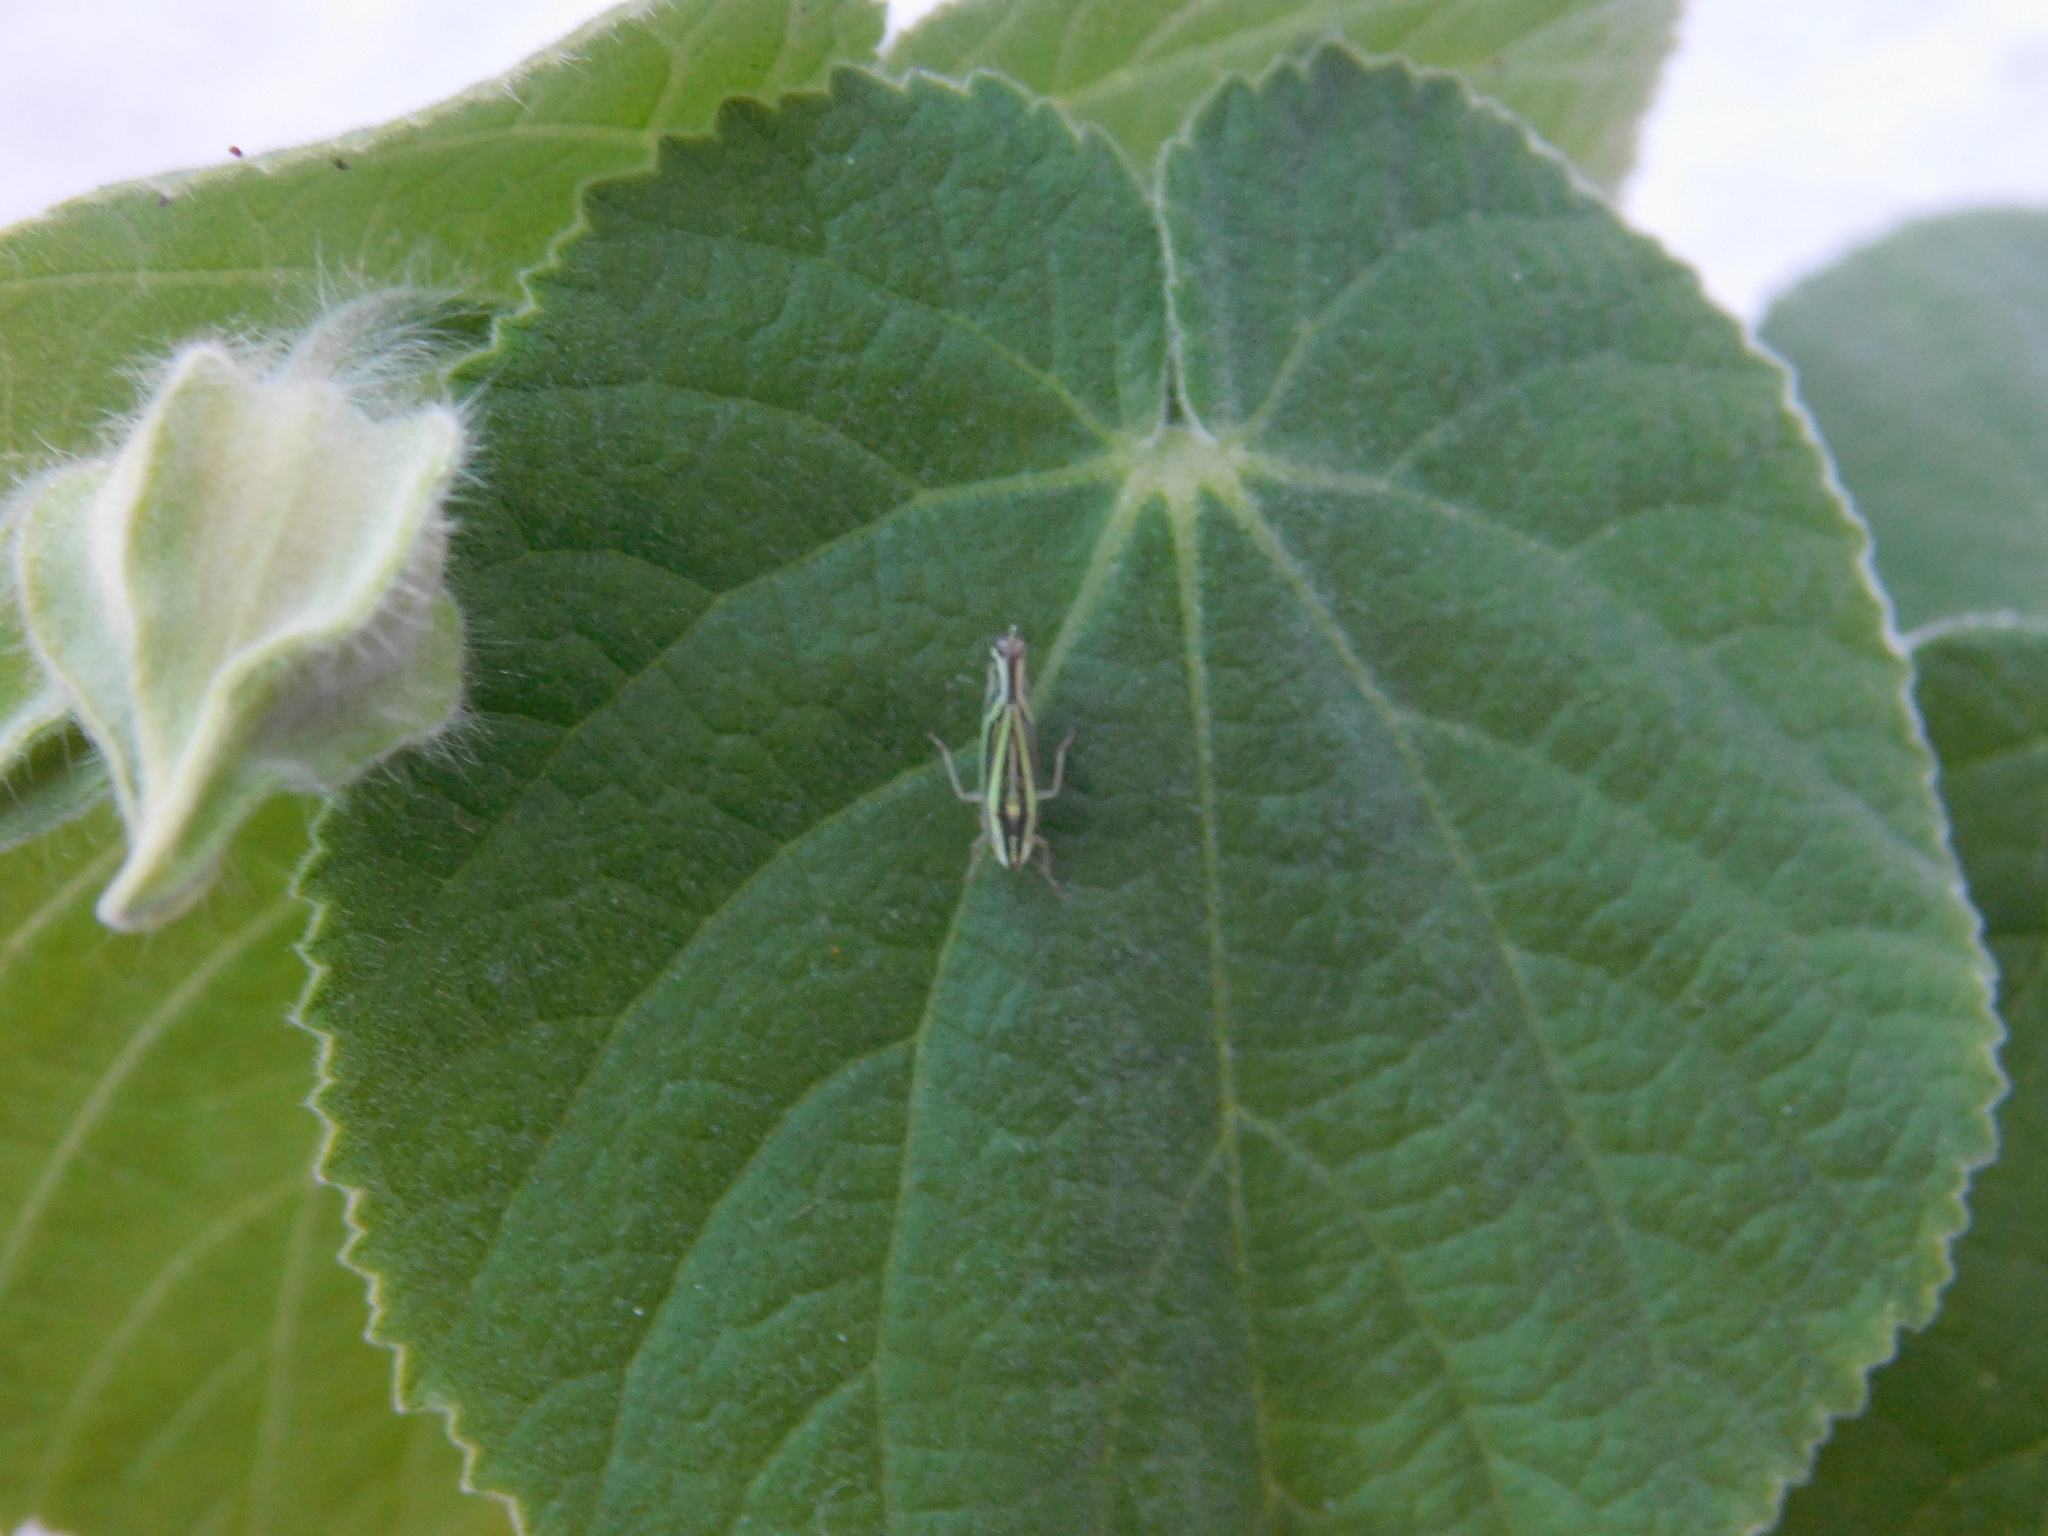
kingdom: Animalia
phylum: Arthropoda
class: Insecta
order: Hemiptera
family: Cicadellidae
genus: Sibovia
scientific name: Sibovia sagata
